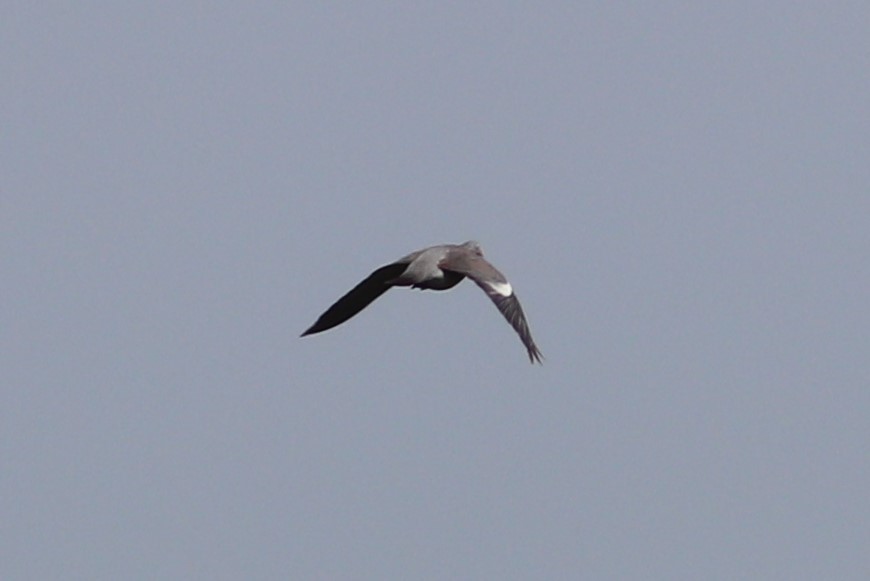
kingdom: Animalia
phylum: Chordata
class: Aves
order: Columbiformes
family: Columbidae
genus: Columba
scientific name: Columba palumbus
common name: Common wood pigeon
